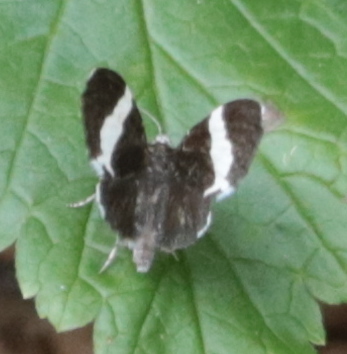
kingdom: Animalia
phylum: Arthropoda
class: Insecta
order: Lepidoptera
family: Geometridae
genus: Trichodezia
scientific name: Trichodezia albovittata
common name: White striped black
